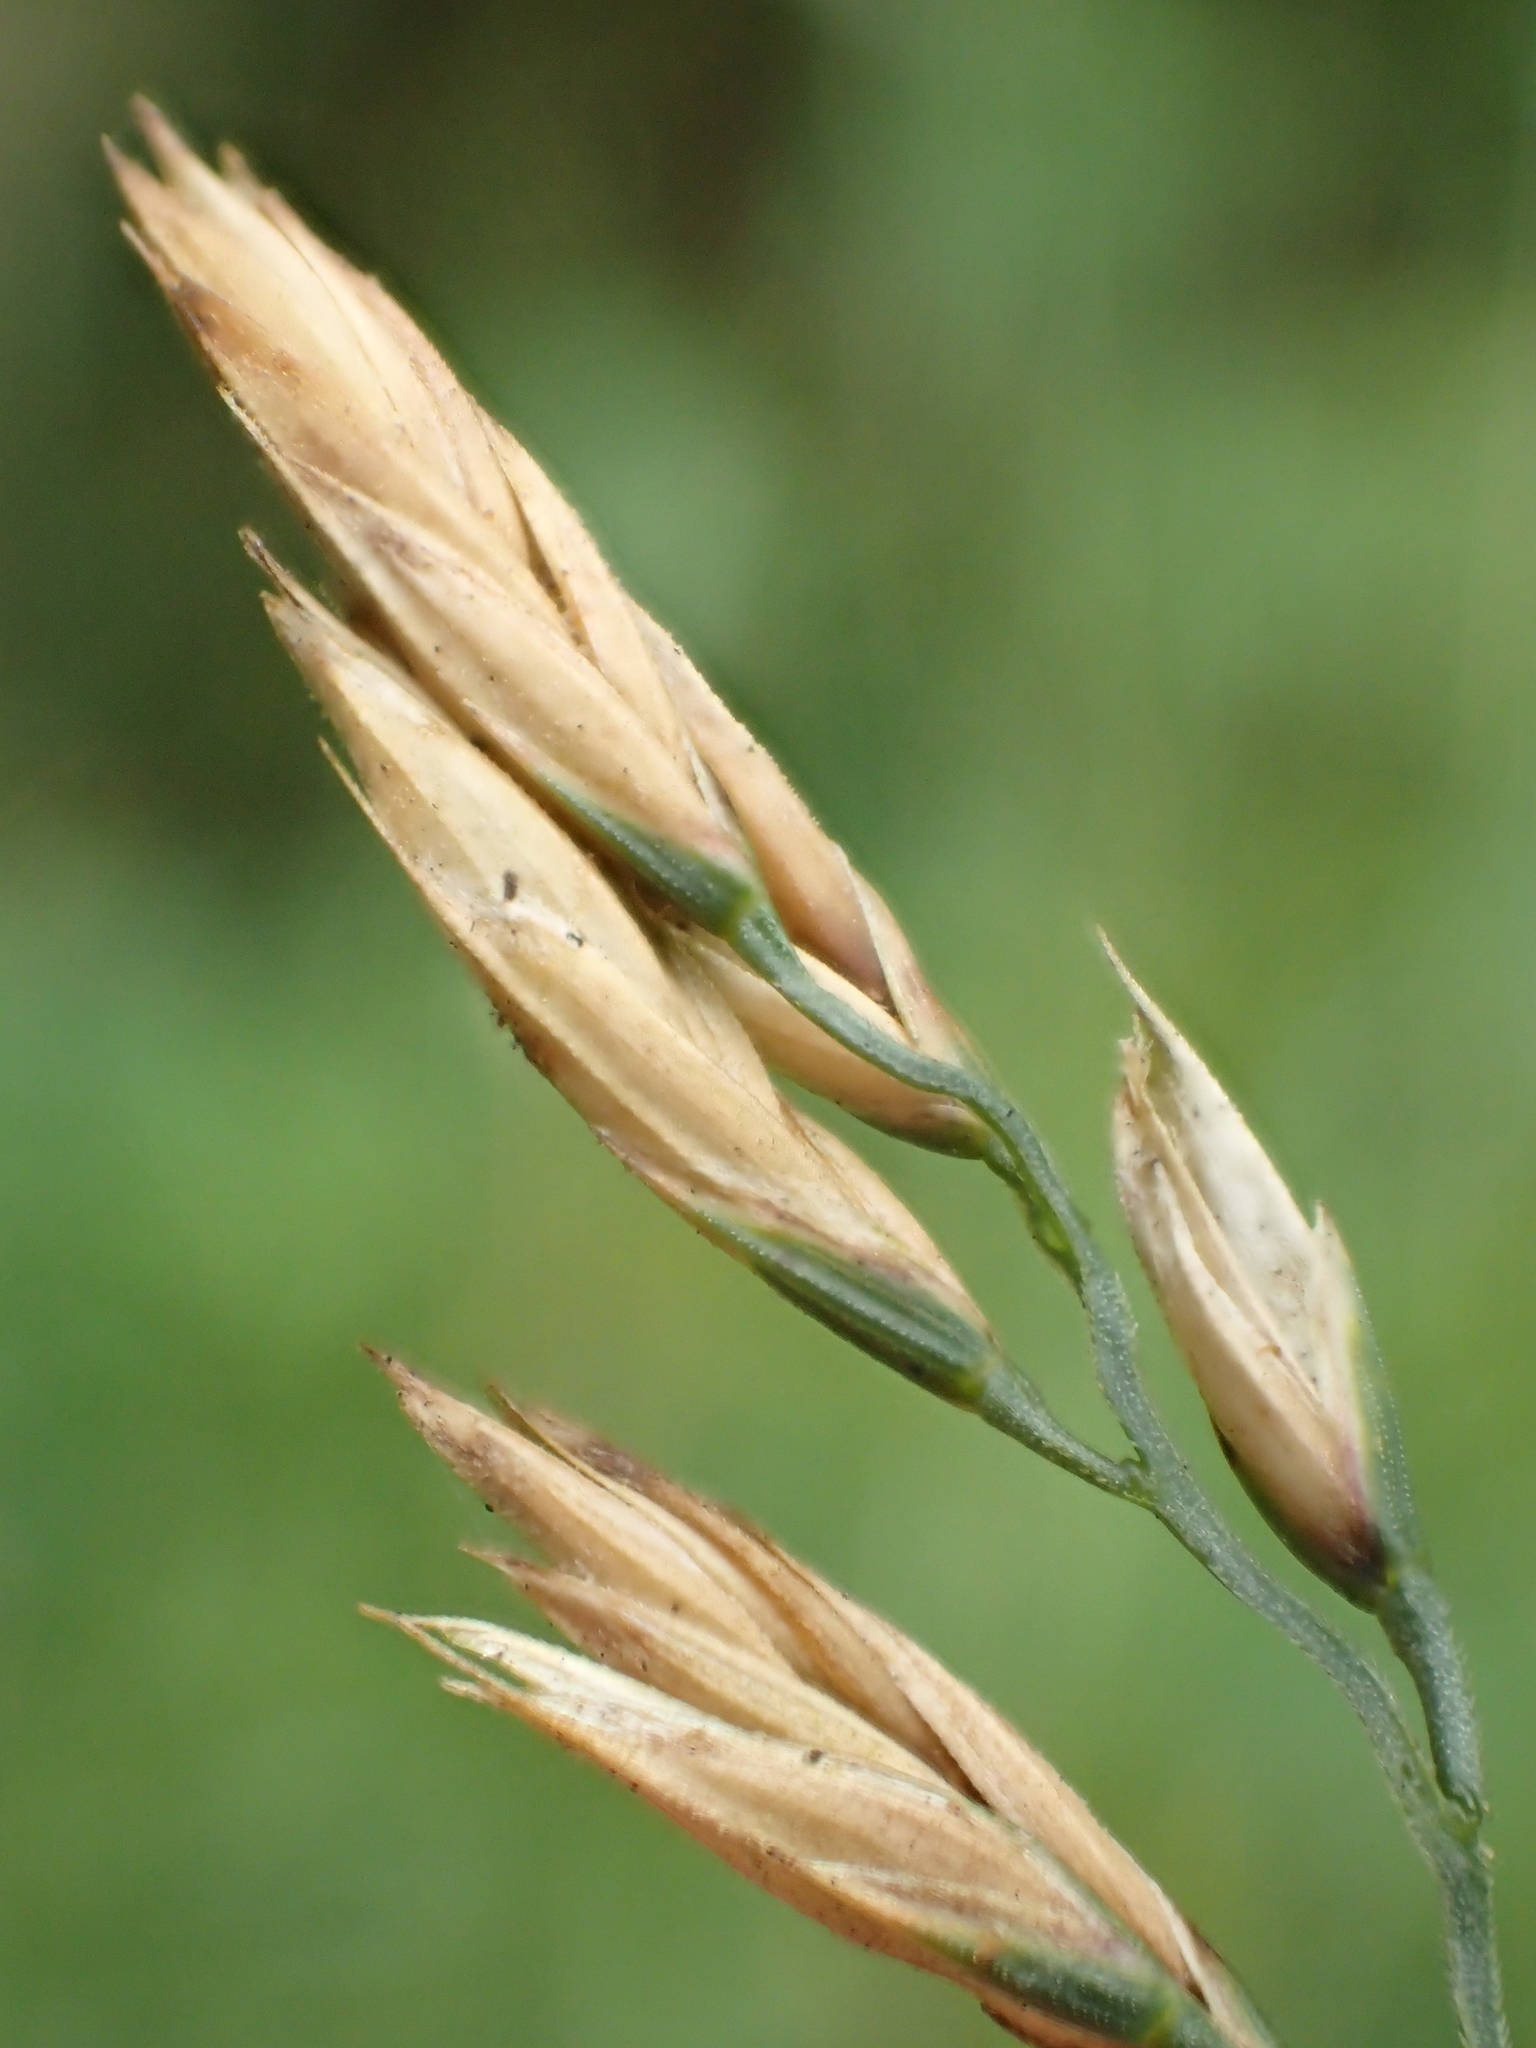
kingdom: Plantae
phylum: Tracheophyta
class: Liliopsida
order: Poales
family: Poaceae
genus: Lolium
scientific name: Lolium arundinaceum
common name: Reed fescue
